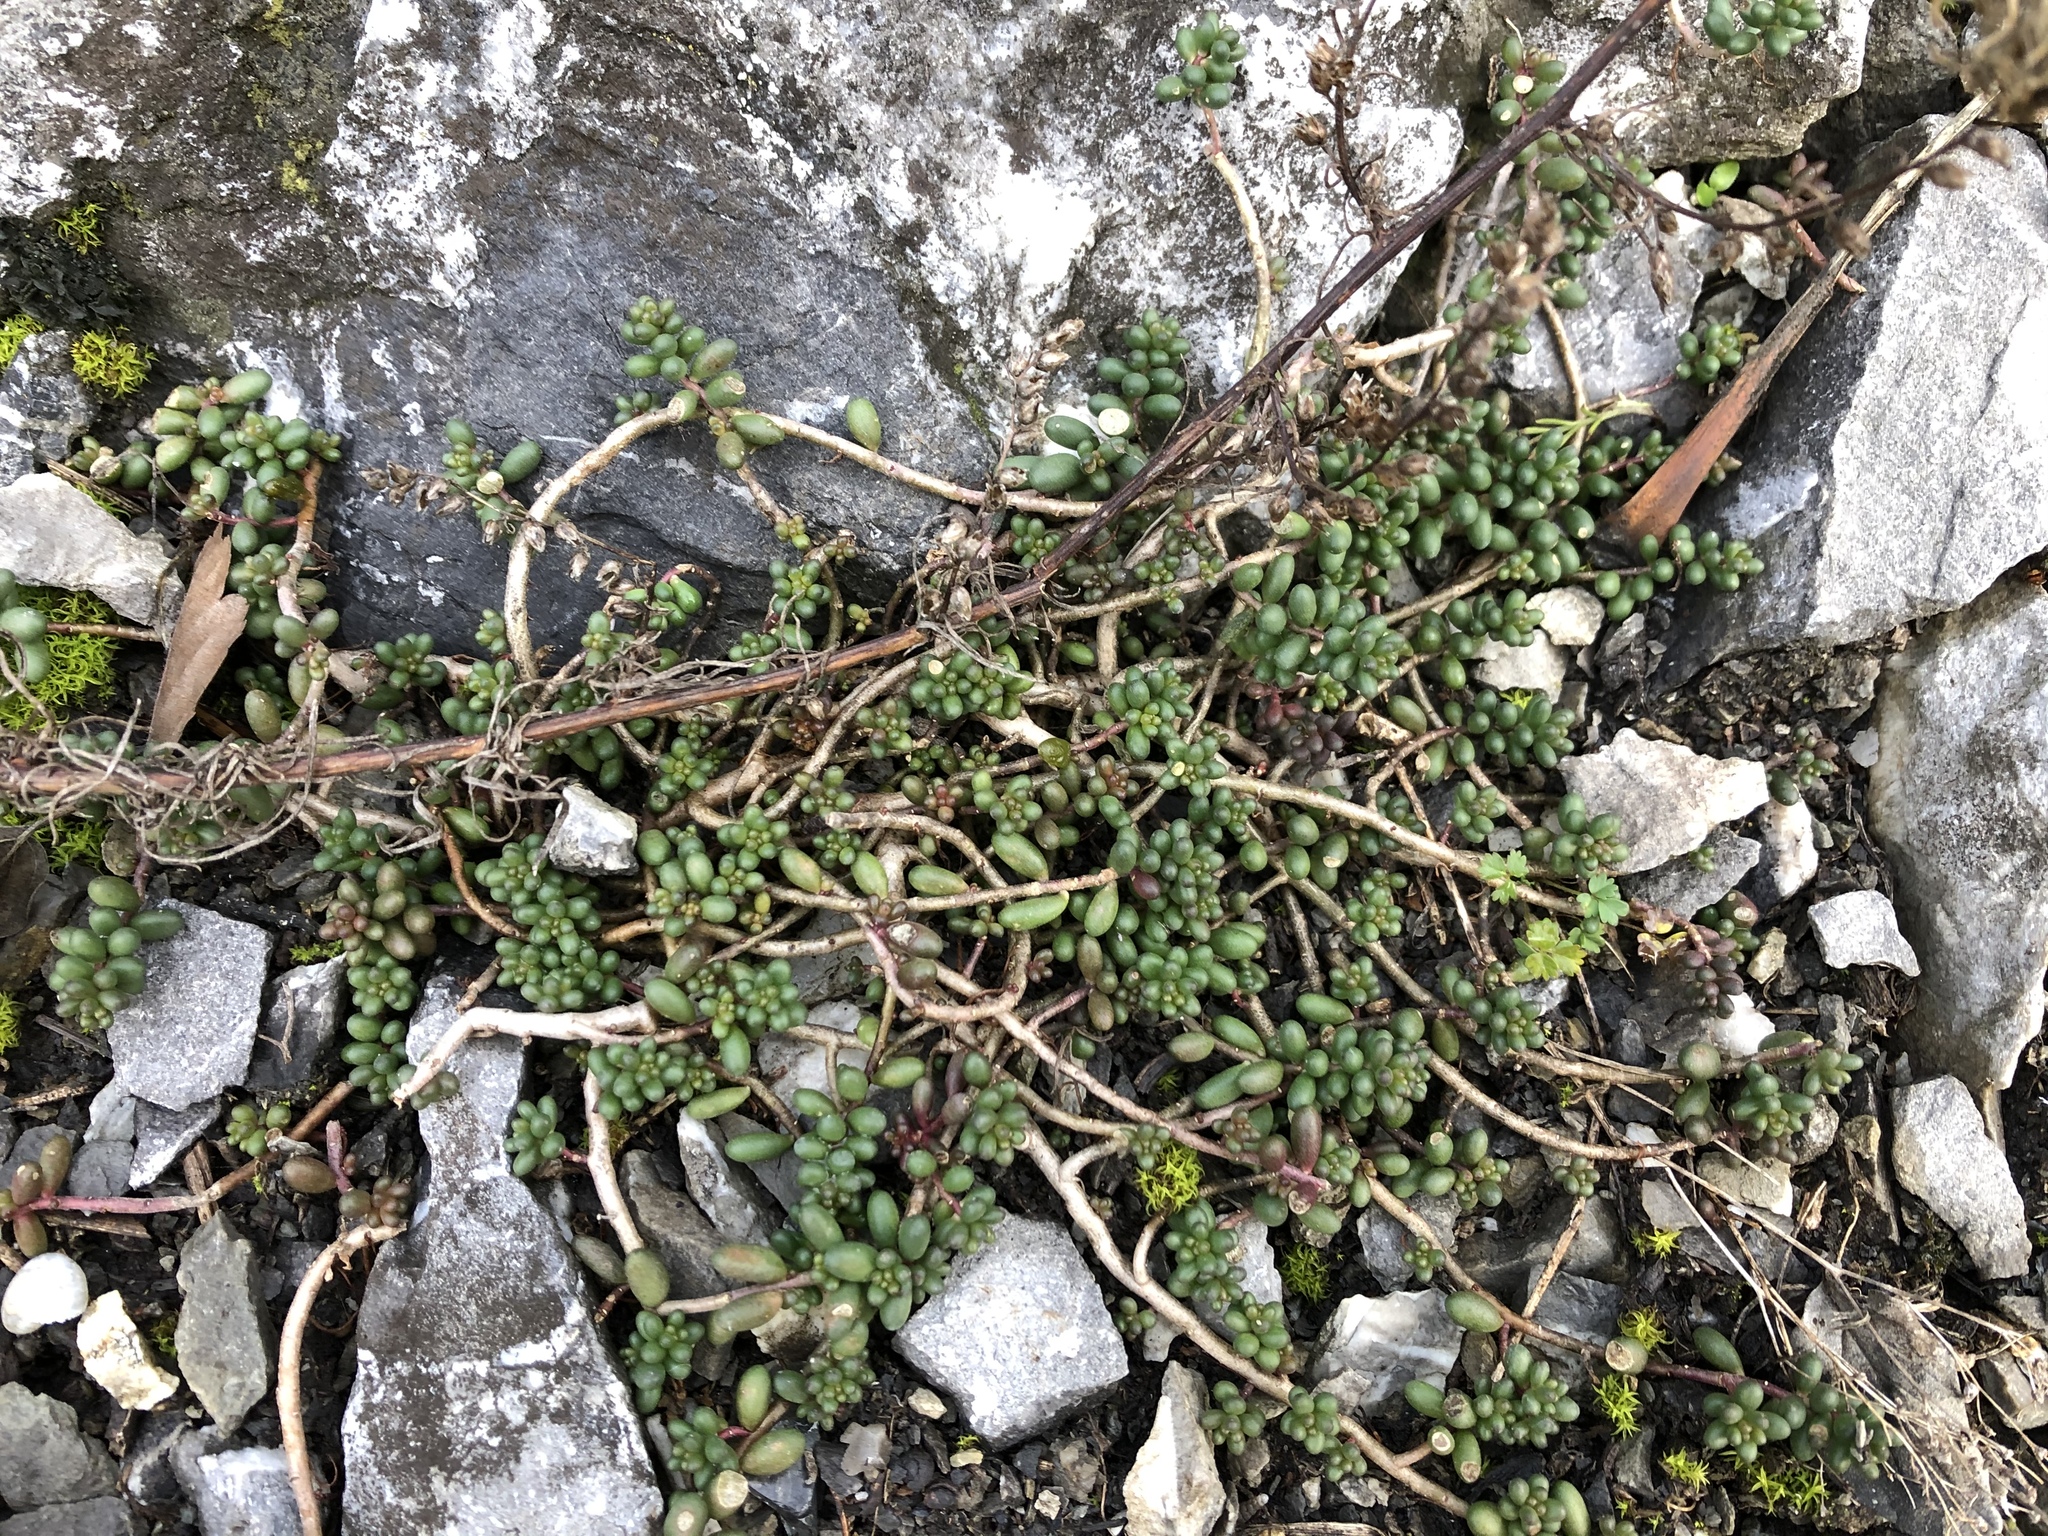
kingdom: Plantae
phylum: Tracheophyta
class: Magnoliopsida
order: Saxifragales
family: Crassulaceae
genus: Sedum
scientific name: Sedum album
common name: White stonecrop
